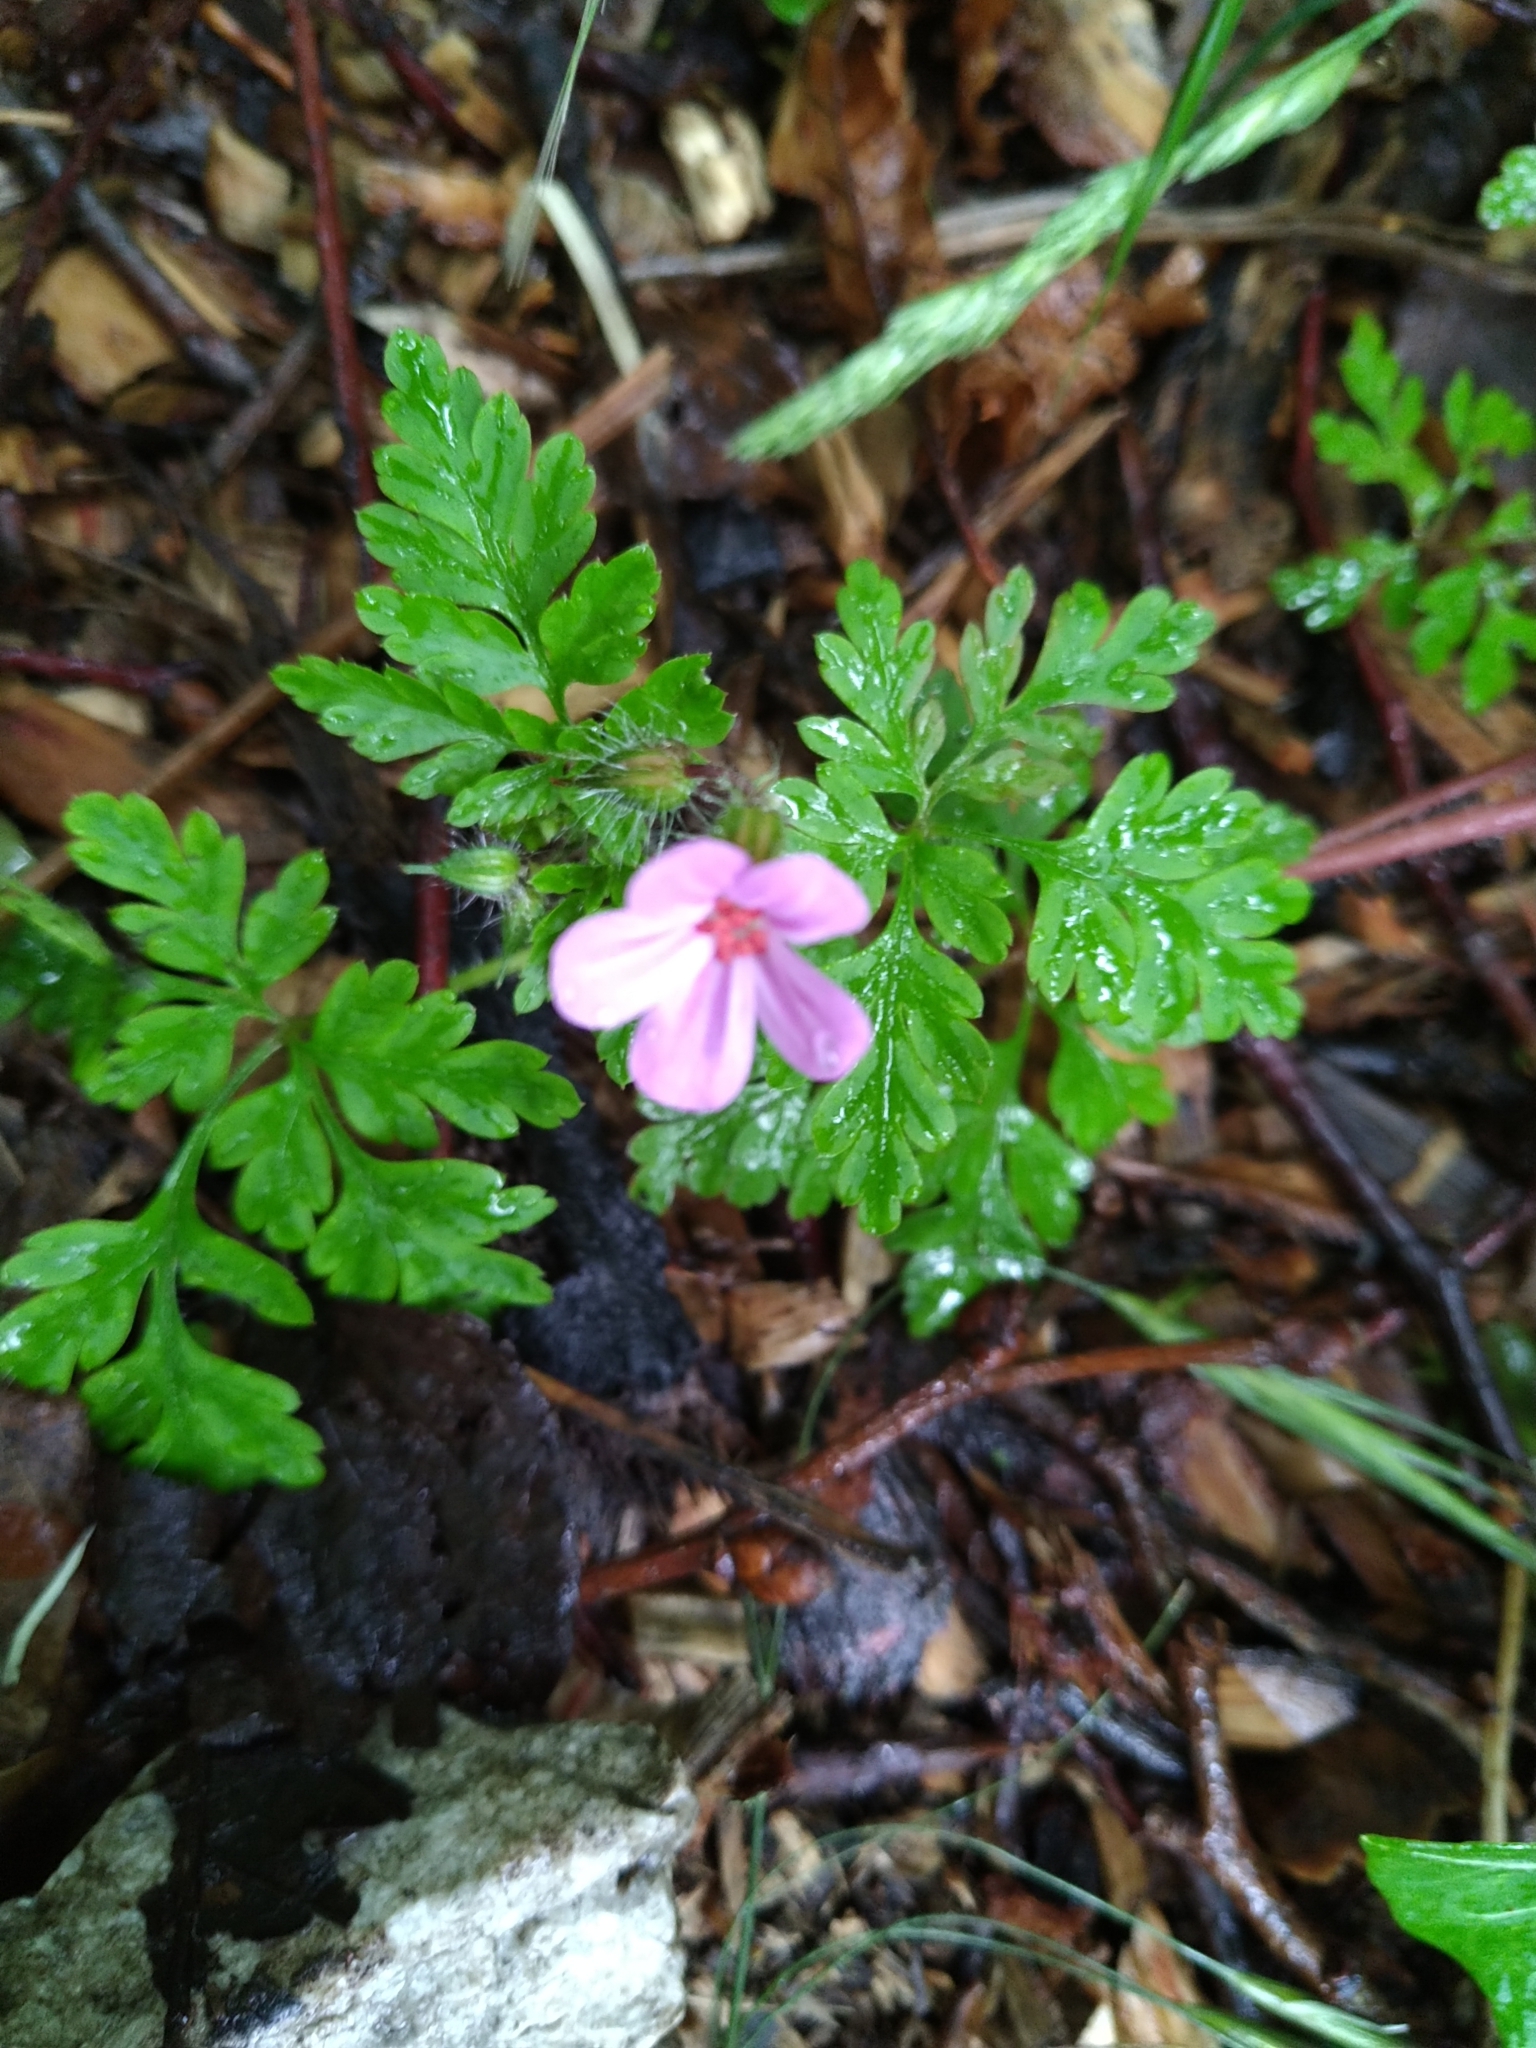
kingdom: Plantae
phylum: Tracheophyta
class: Magnoliopsida
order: Geraniales
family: Geraniaceae
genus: Geranium
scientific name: Geranium robertianum
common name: Herb-robert
